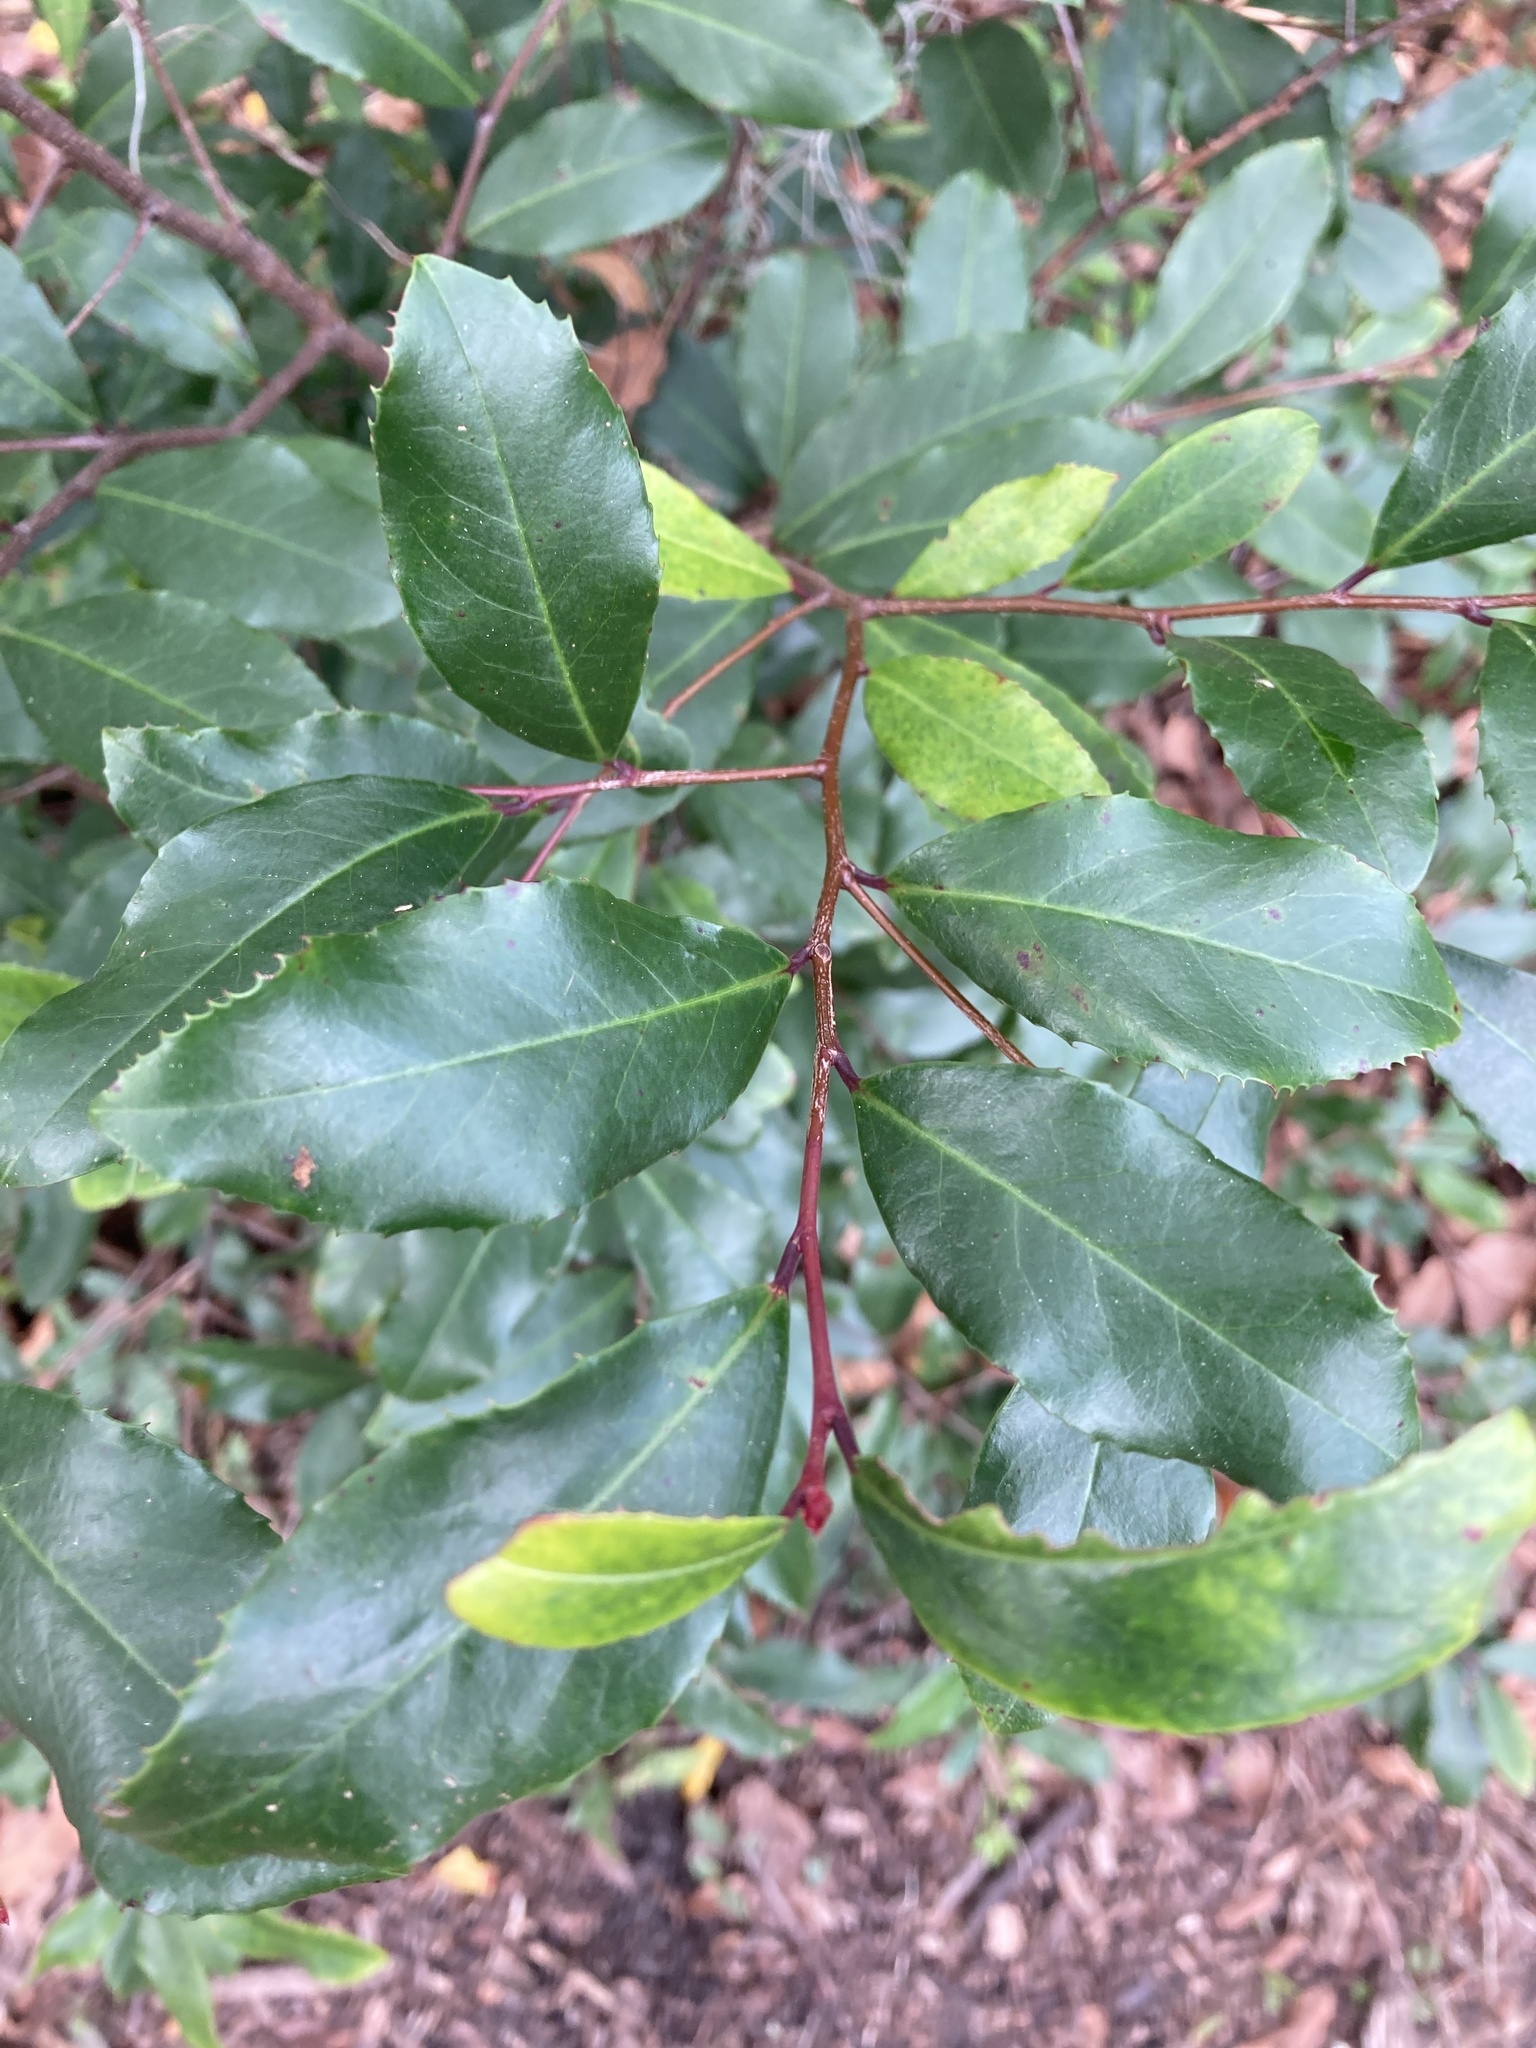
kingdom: Plantae
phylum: Tracheophyta
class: Magnoliopsida
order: Rosales
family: Rosaceae
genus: Prunus
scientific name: Prunus caroliniana
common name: Carolina laurel cherry
